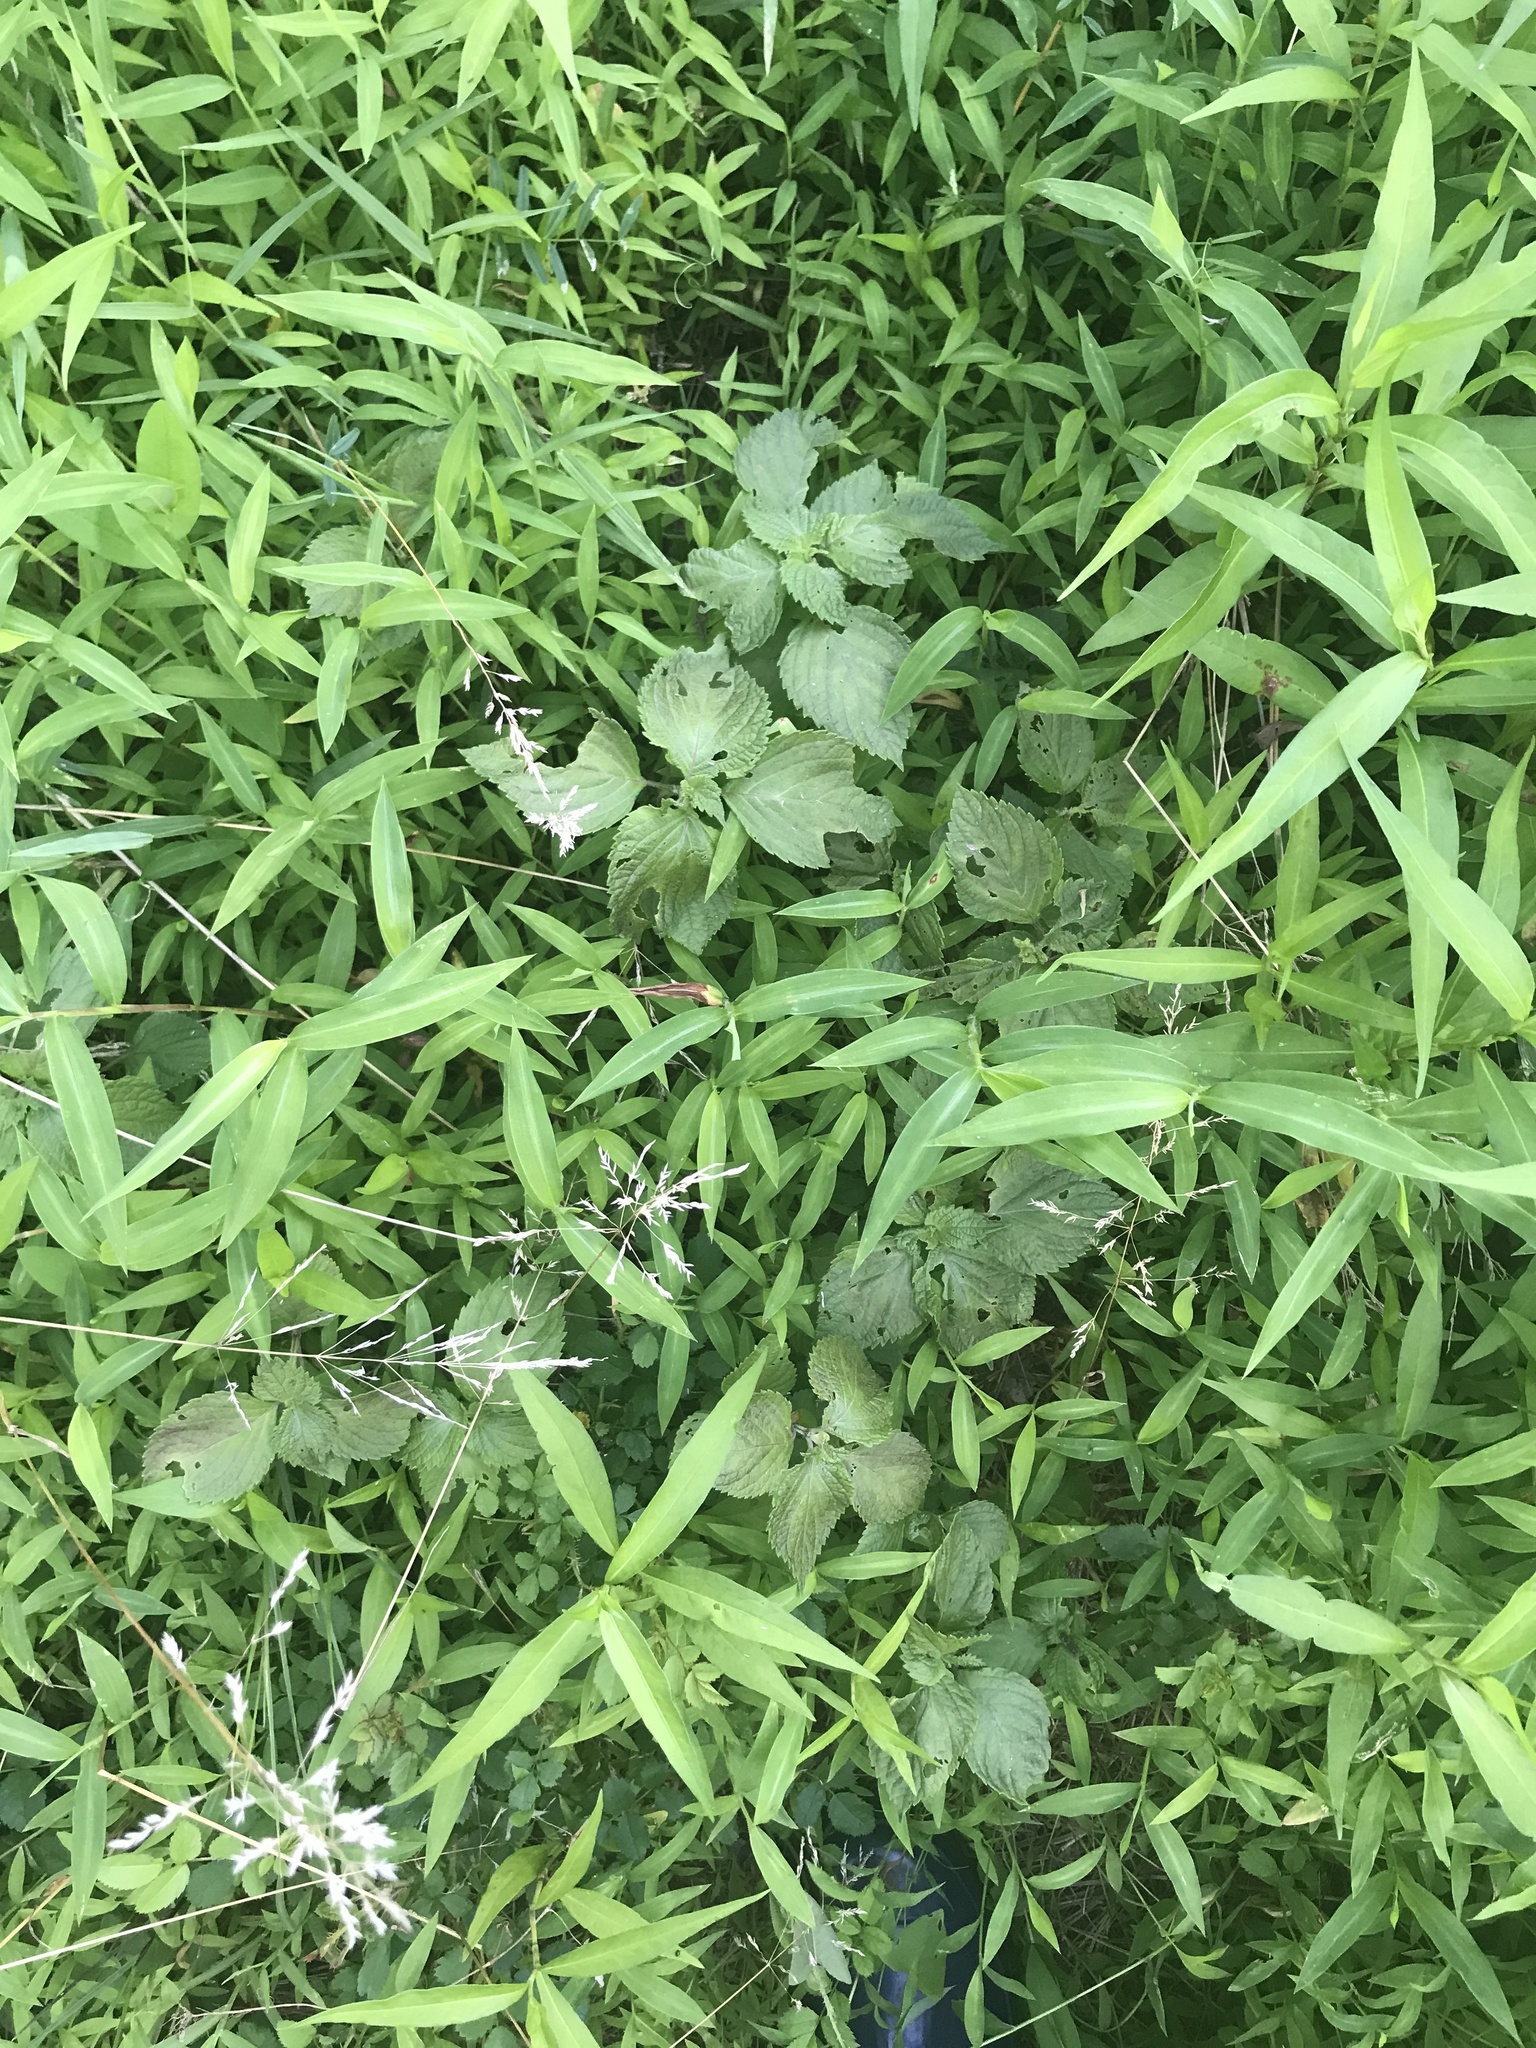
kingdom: Plantae
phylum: Tracheophyta
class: Magnoliopsida
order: Lamiales
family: Lamiaceae
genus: Perilla
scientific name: Perilla frutescens
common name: Perilla
